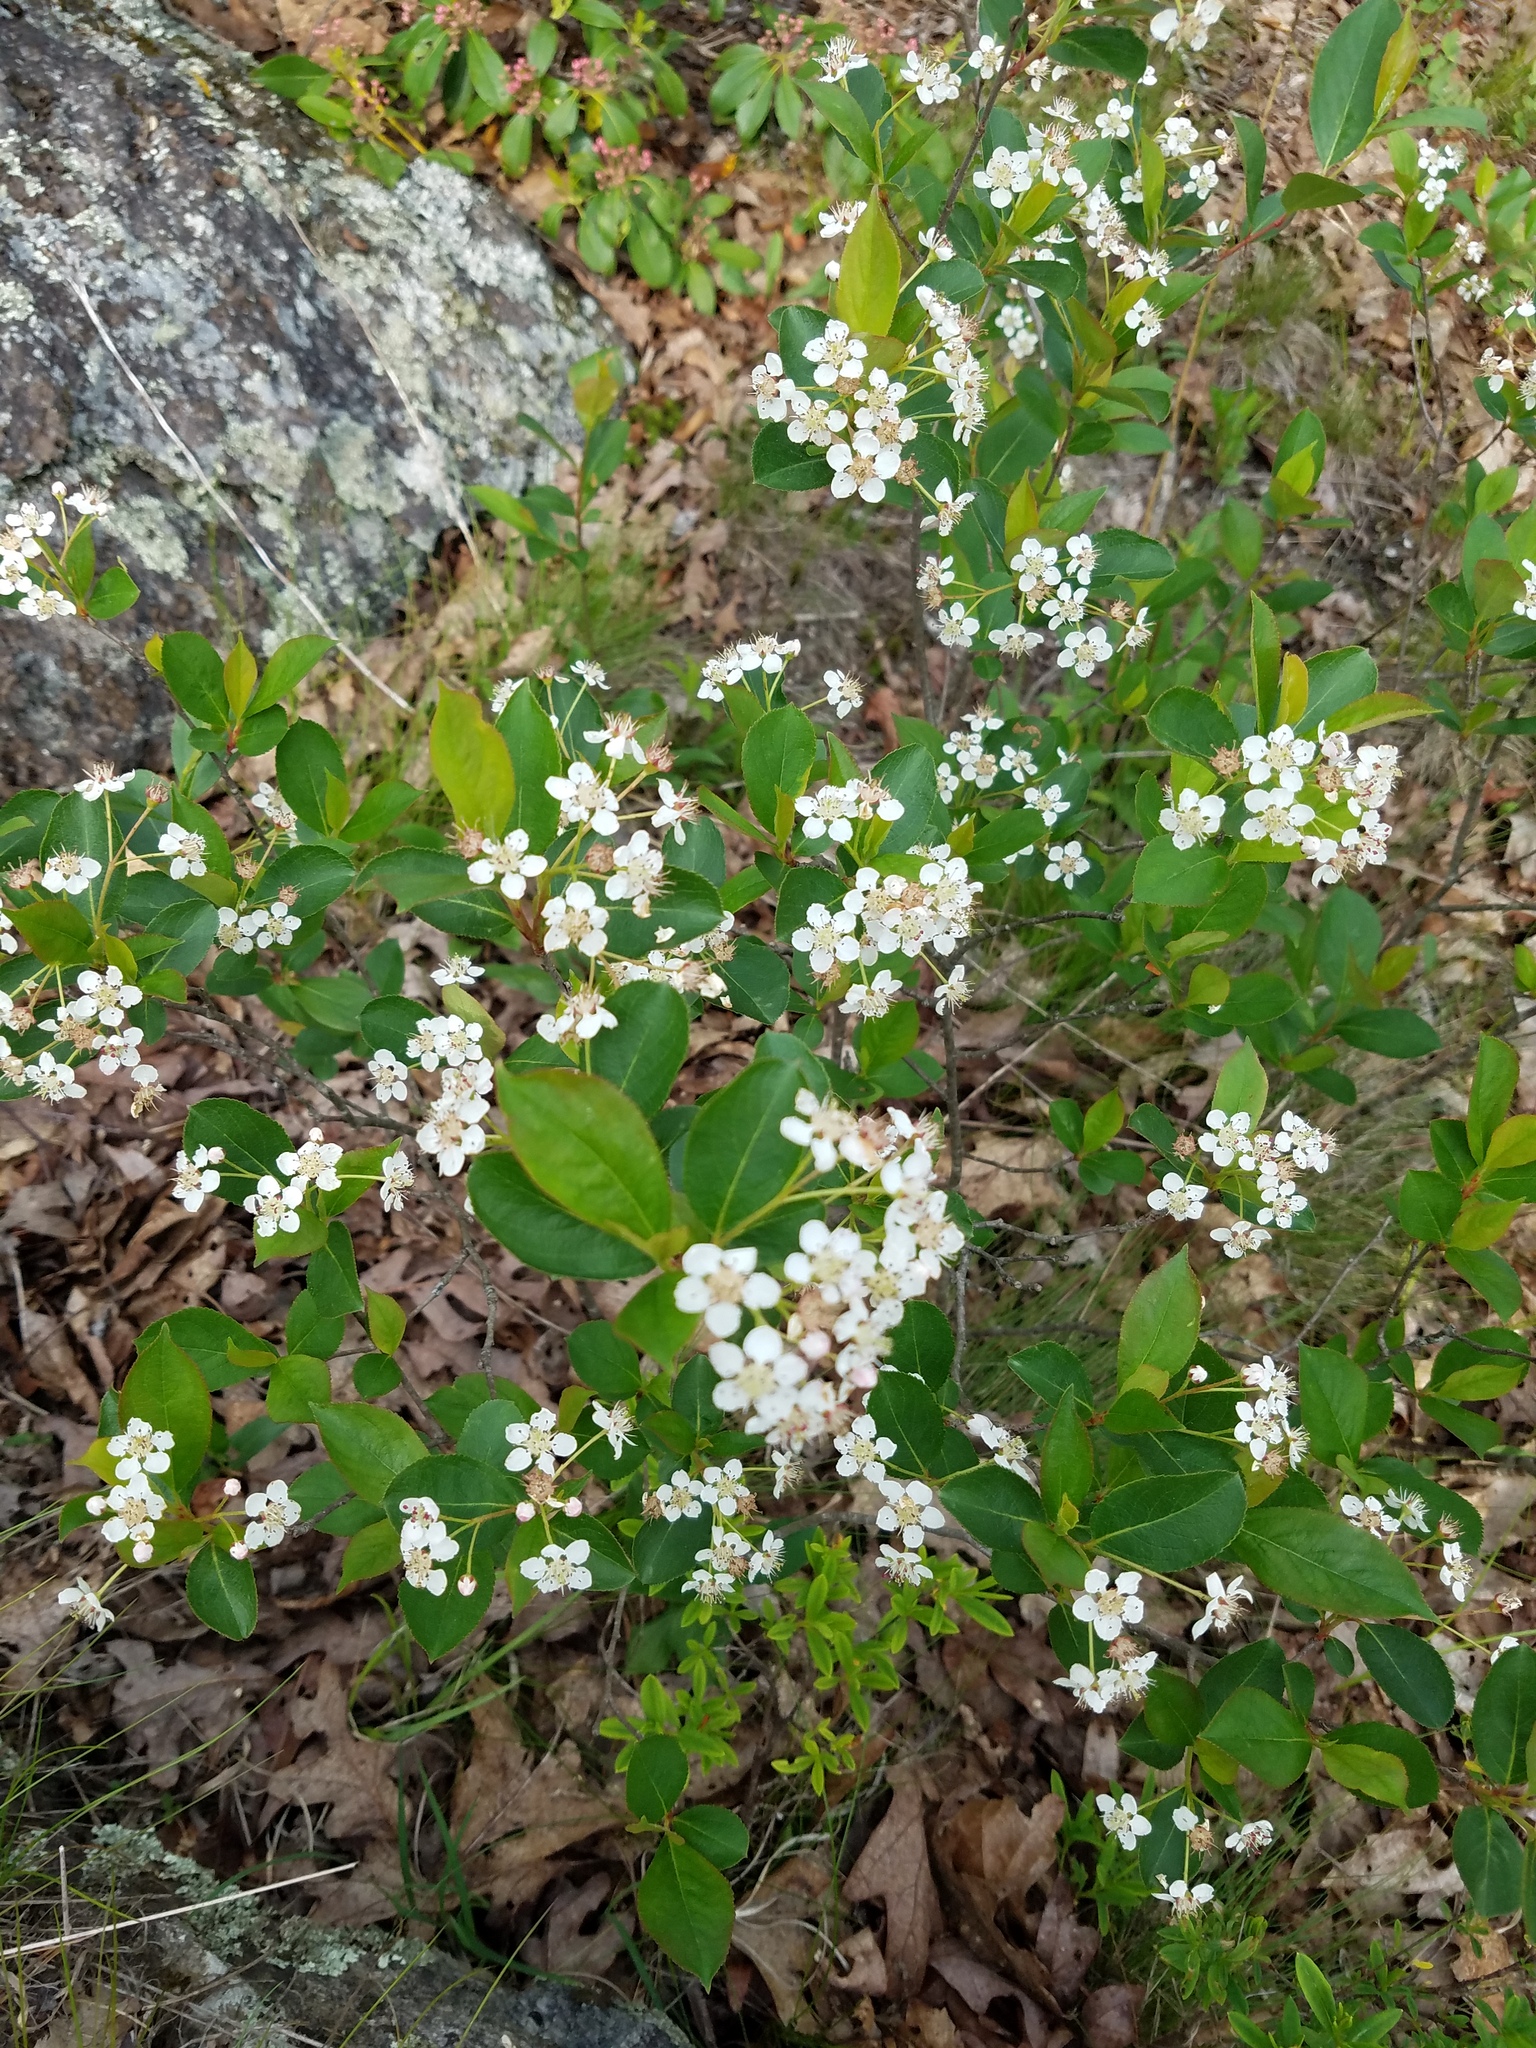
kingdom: Plantae
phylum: Tracheophyta
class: Magnoliopsida
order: Rosales
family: Rosaceae
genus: Aronia
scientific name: Aronia melanocarpa
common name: Black chokeberry
